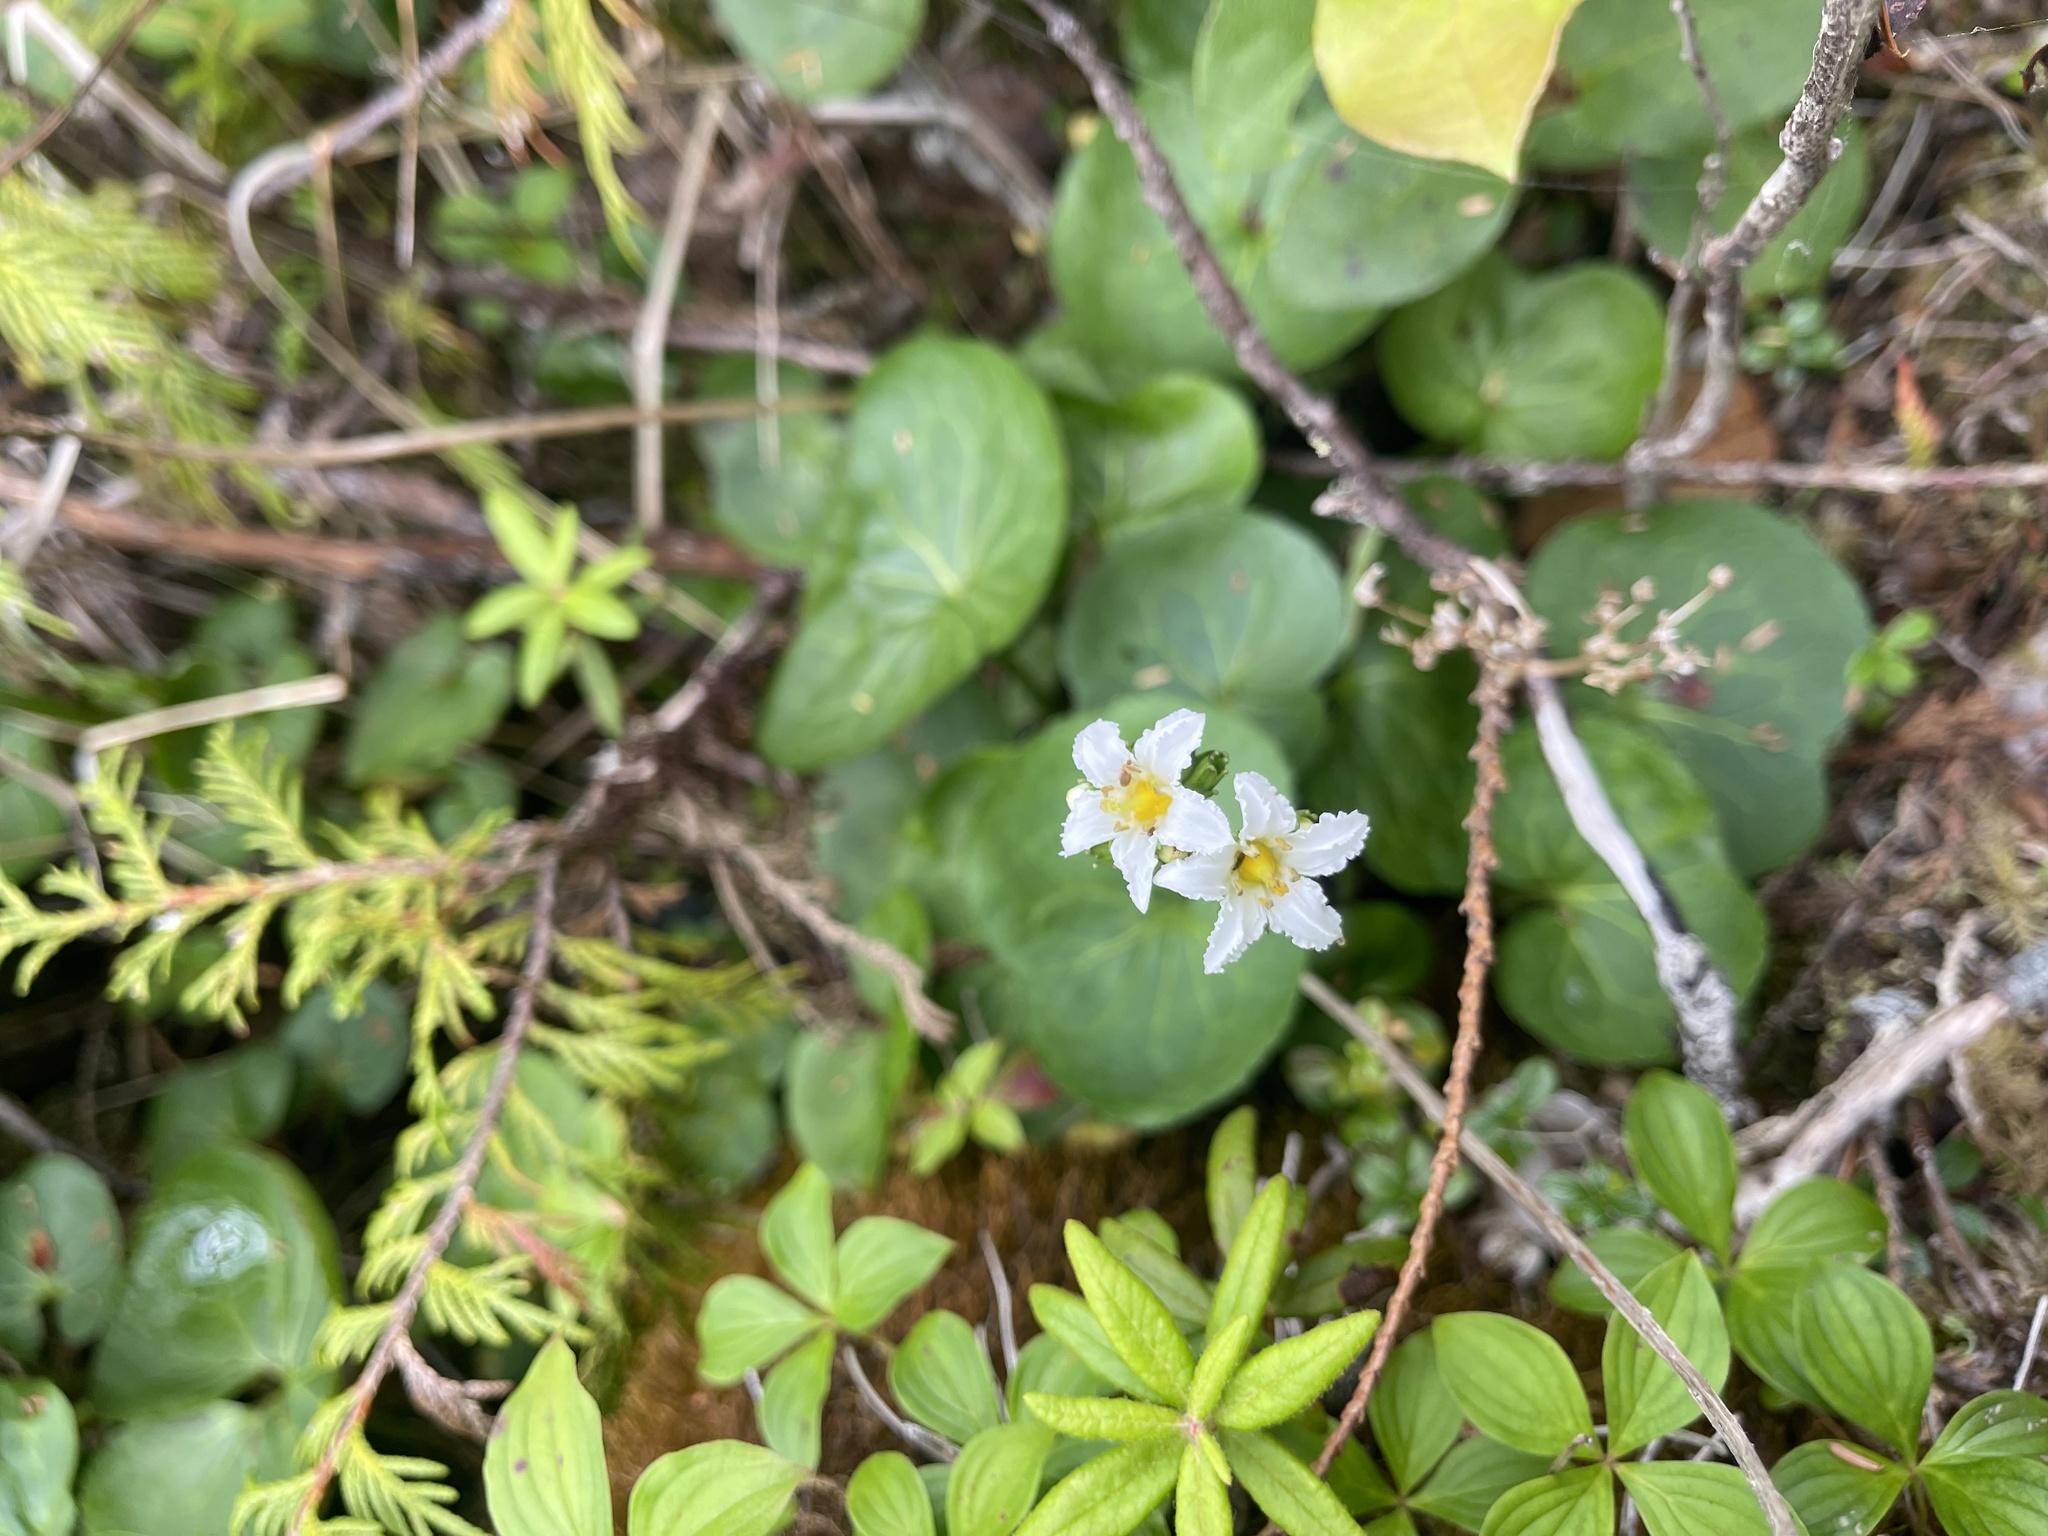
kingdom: Plantae
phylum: Tracheophyta
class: Magnoliopsida
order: Asterales
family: Menyanthaceae
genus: Nephrophyllidium
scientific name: Nephrophyllidium crista-galli
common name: Deer-cabbage
